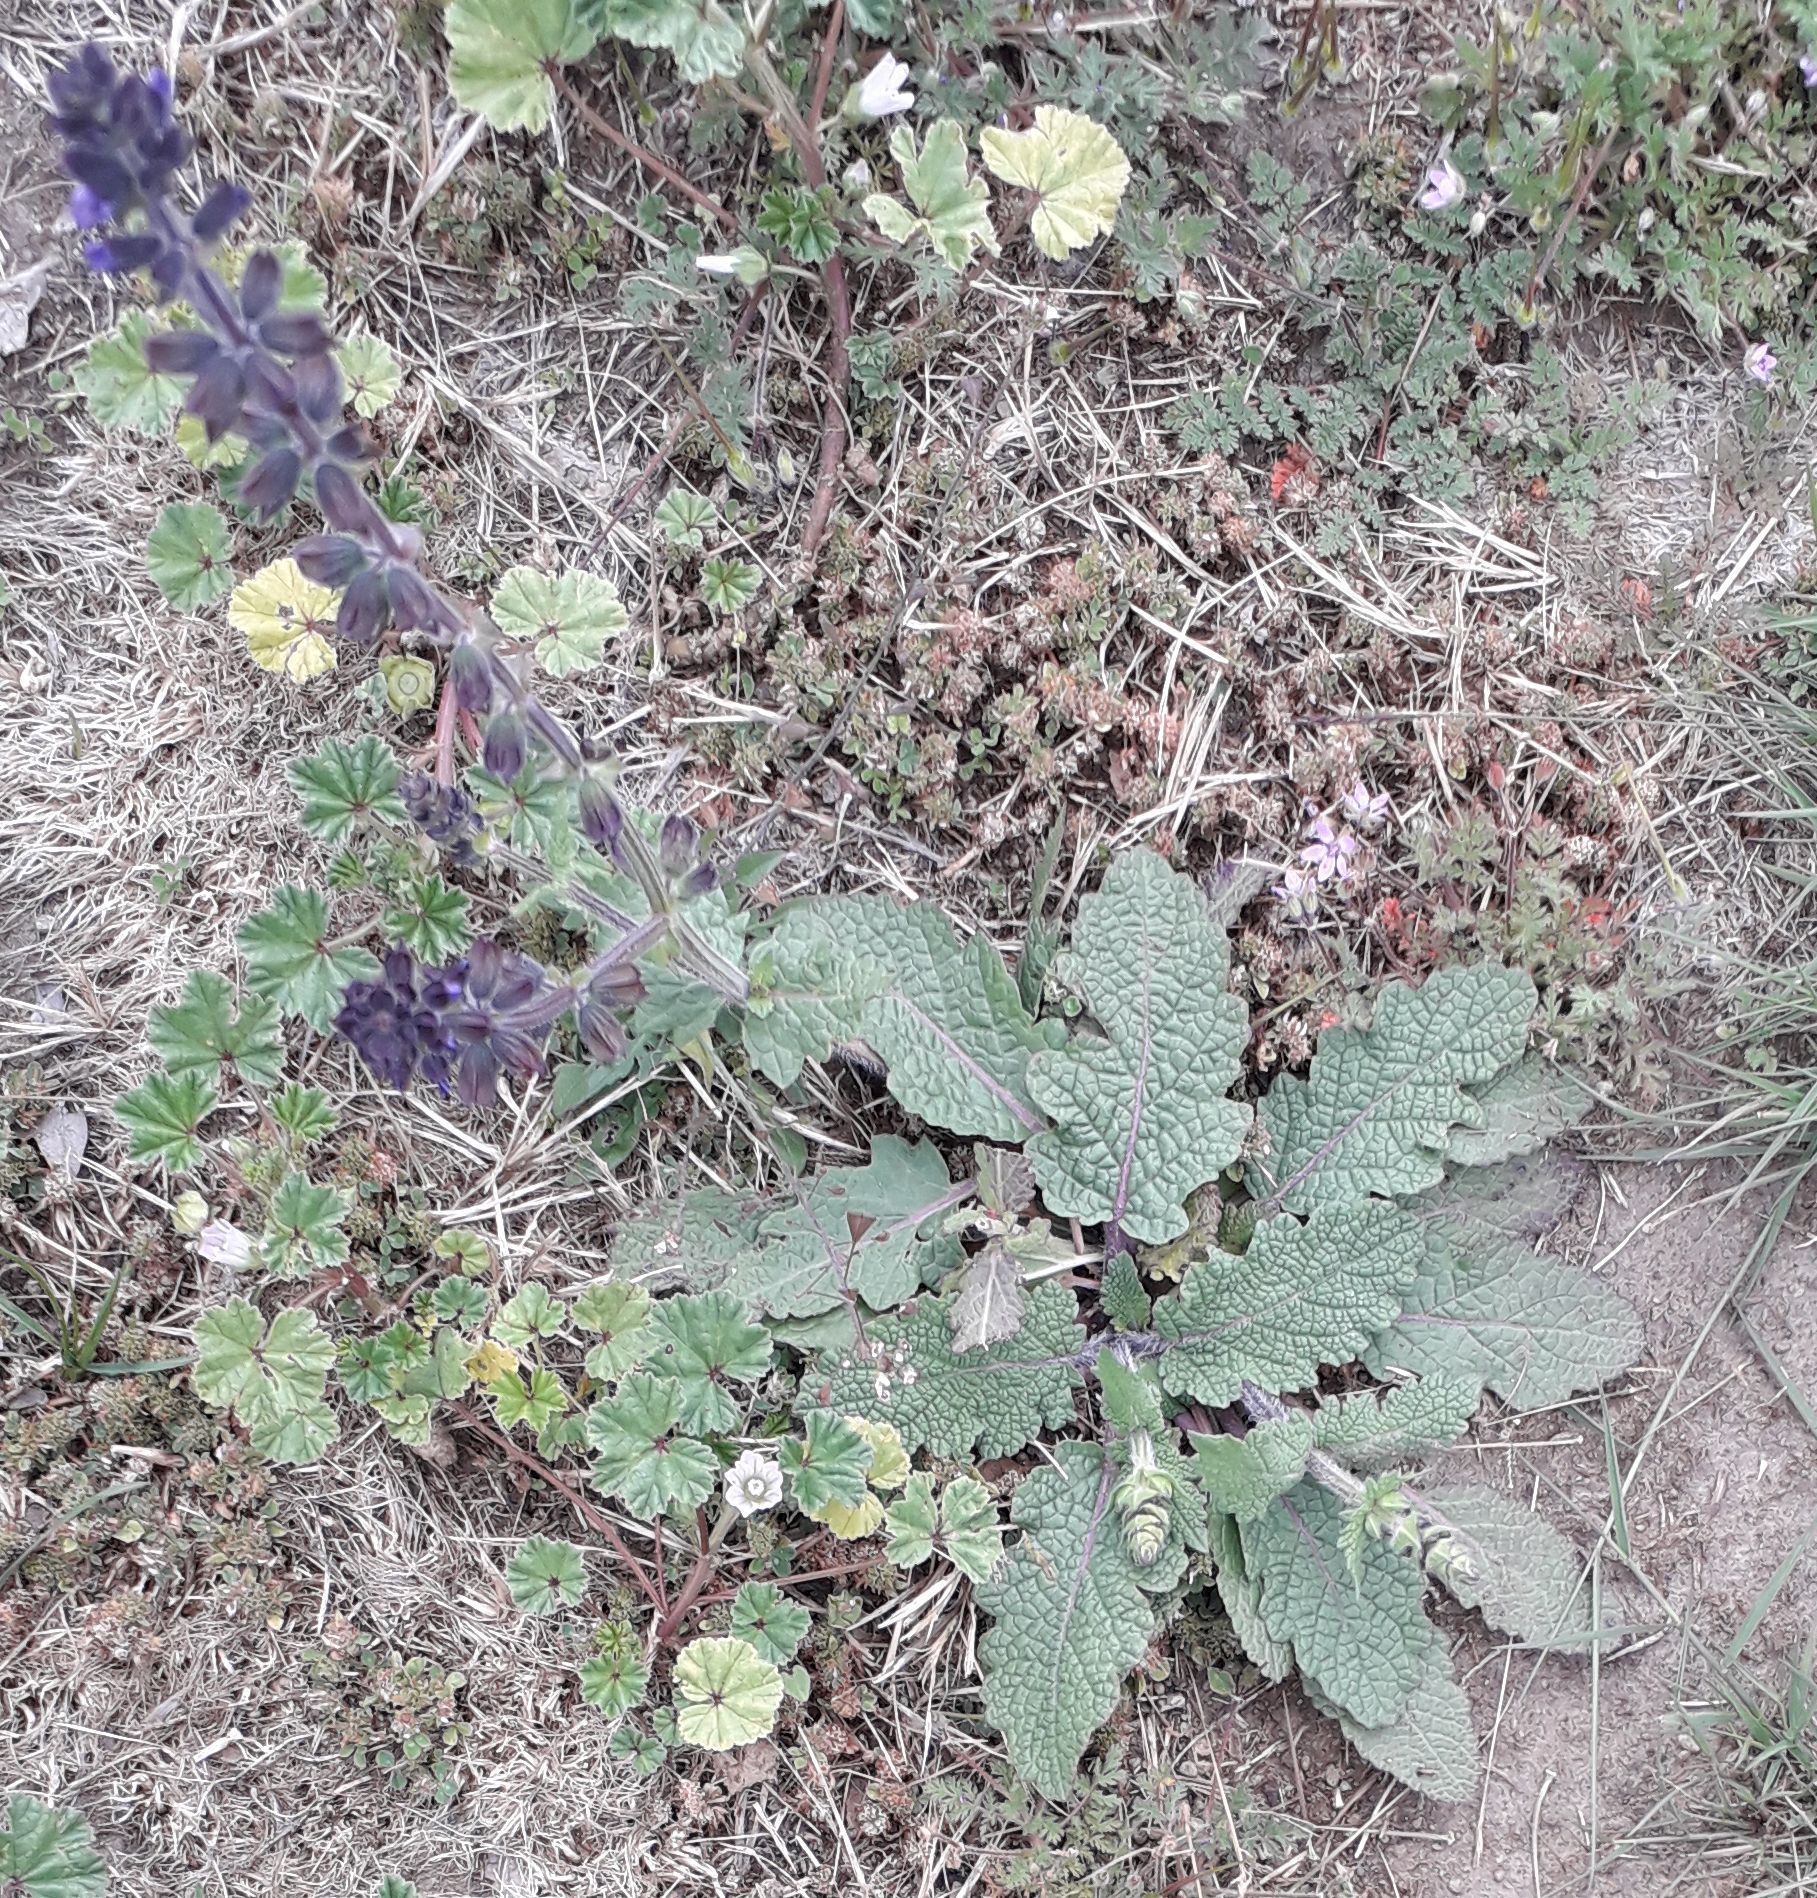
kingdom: Plantae
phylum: Tracheophyta
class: Magnoliopsida
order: Lamiales
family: Lamiaceae
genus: Salvia
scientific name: Salvia verbenaca
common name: Wild clary
